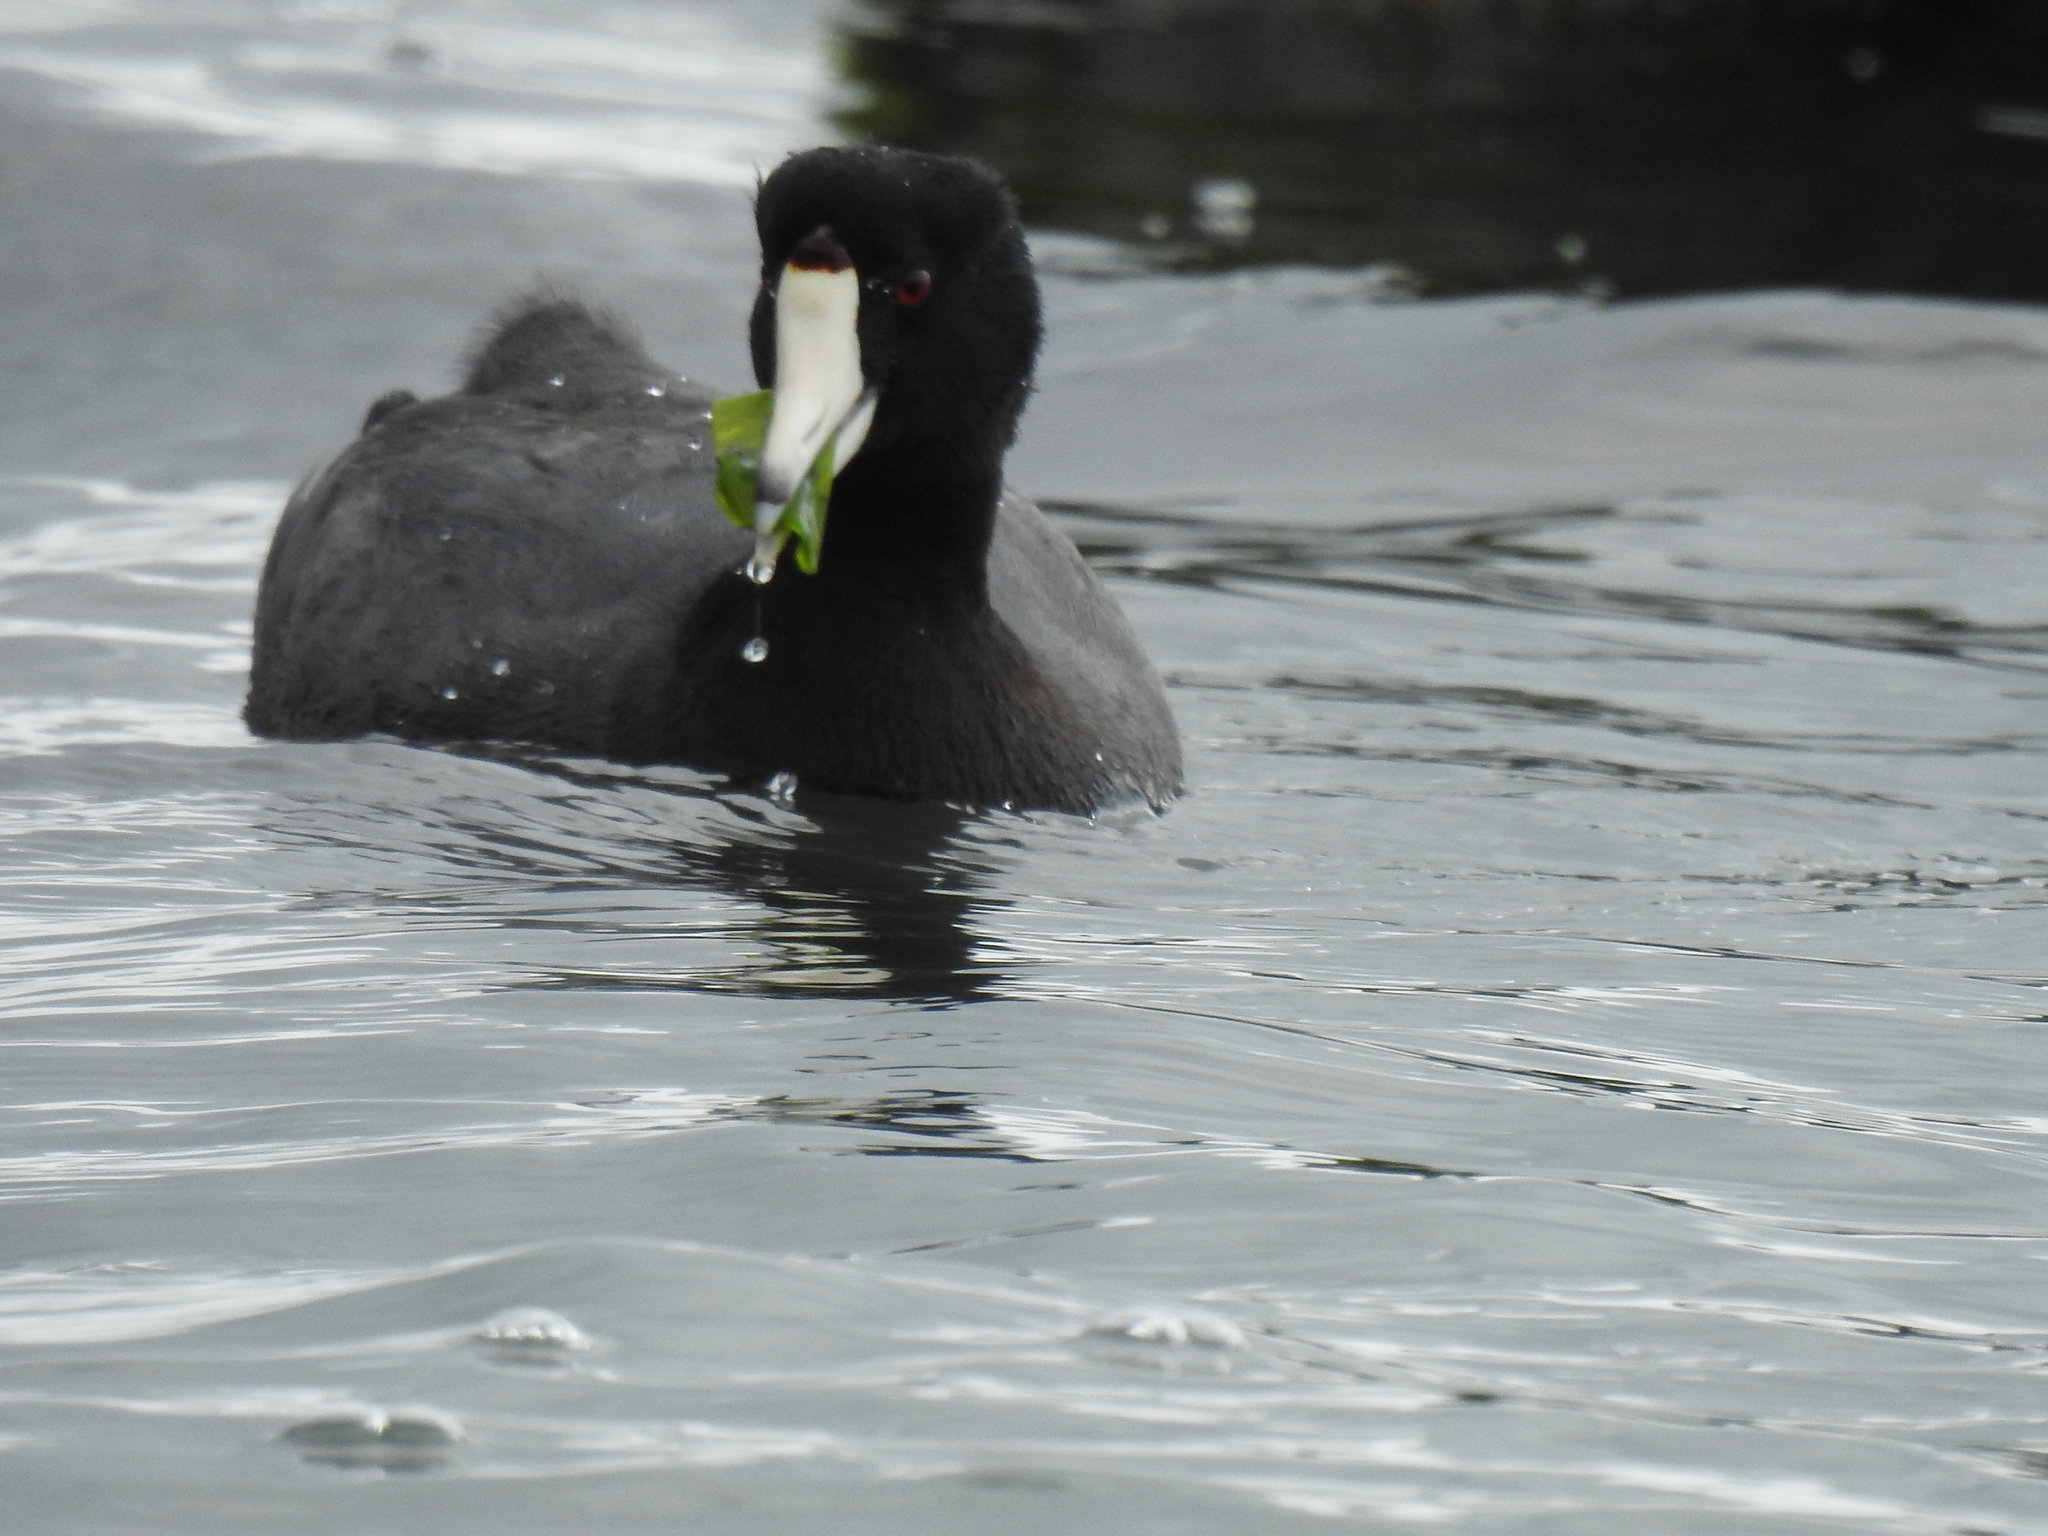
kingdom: Animalia
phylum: Chordata
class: Aves
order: Gruiformes
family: Rallidae
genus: Fulica
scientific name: Fulica americana
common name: American coot
